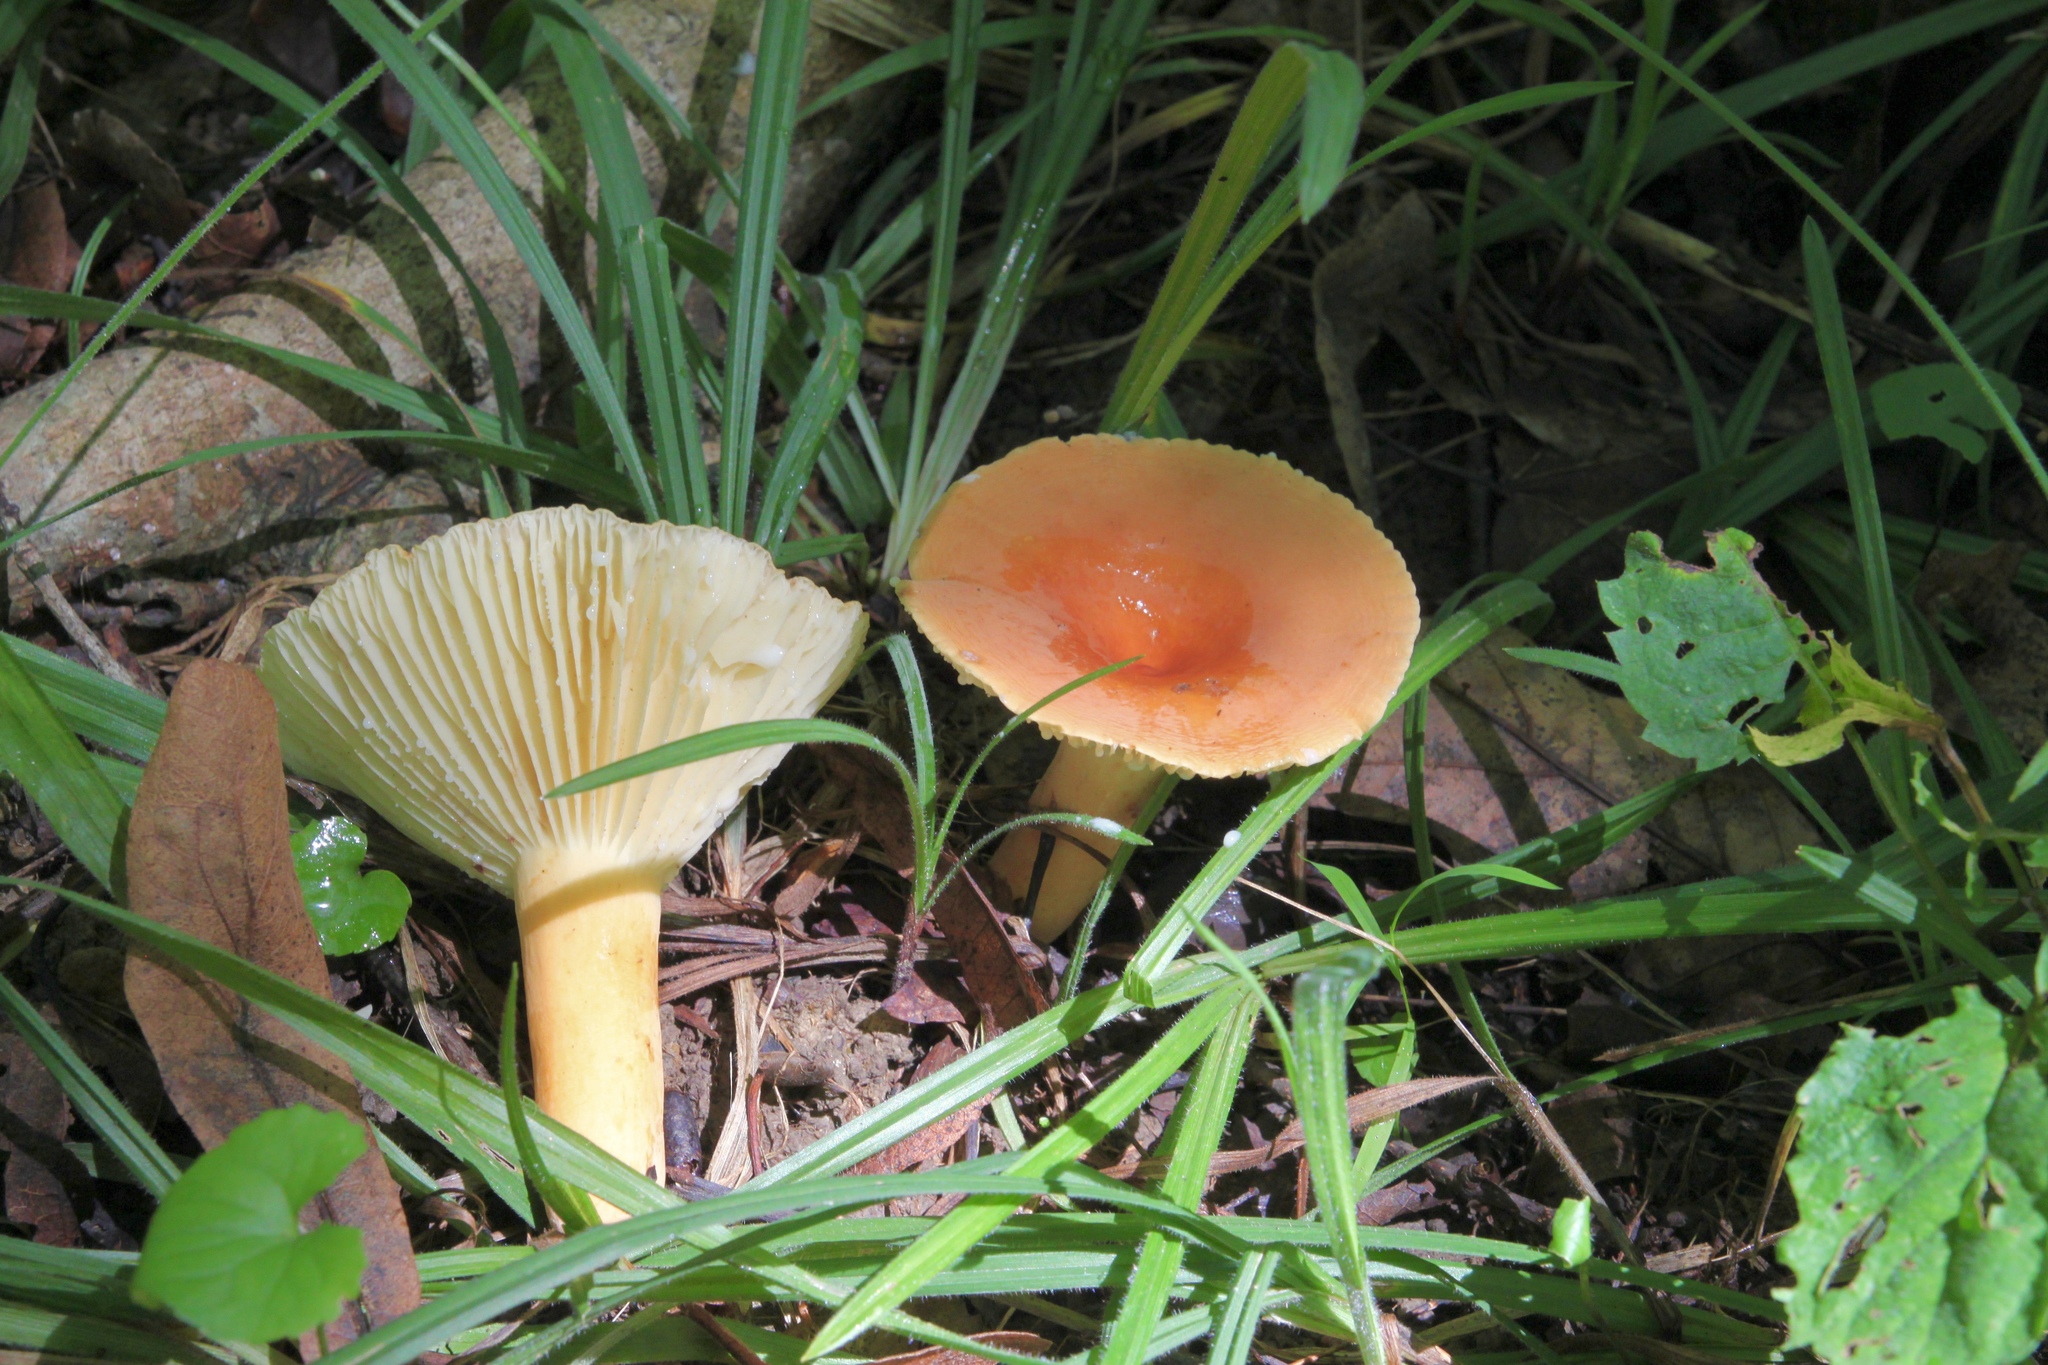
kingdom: Fungi
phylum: Basidiomycota
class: Agaricomycetes
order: Russulales
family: Russulaceae
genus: Lactarius
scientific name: Lactarius hygrophoroides
